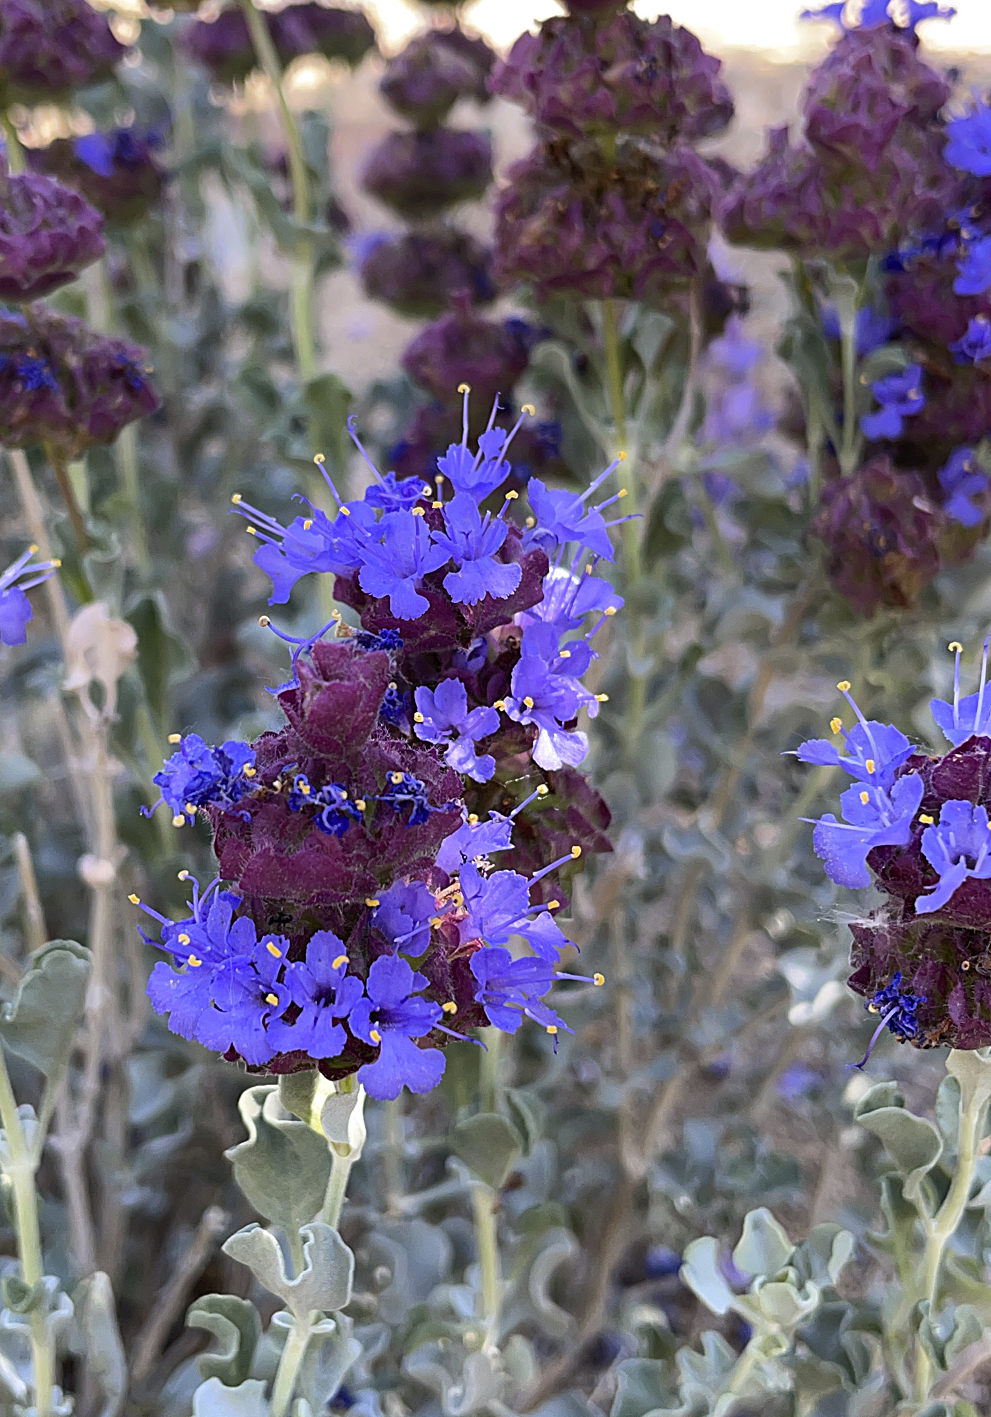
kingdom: Plantae
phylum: Tracheophyta
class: Magnoliopsida
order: Lamiales
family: Lamiaceae
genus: Salvia
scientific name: Salvia dorrii
